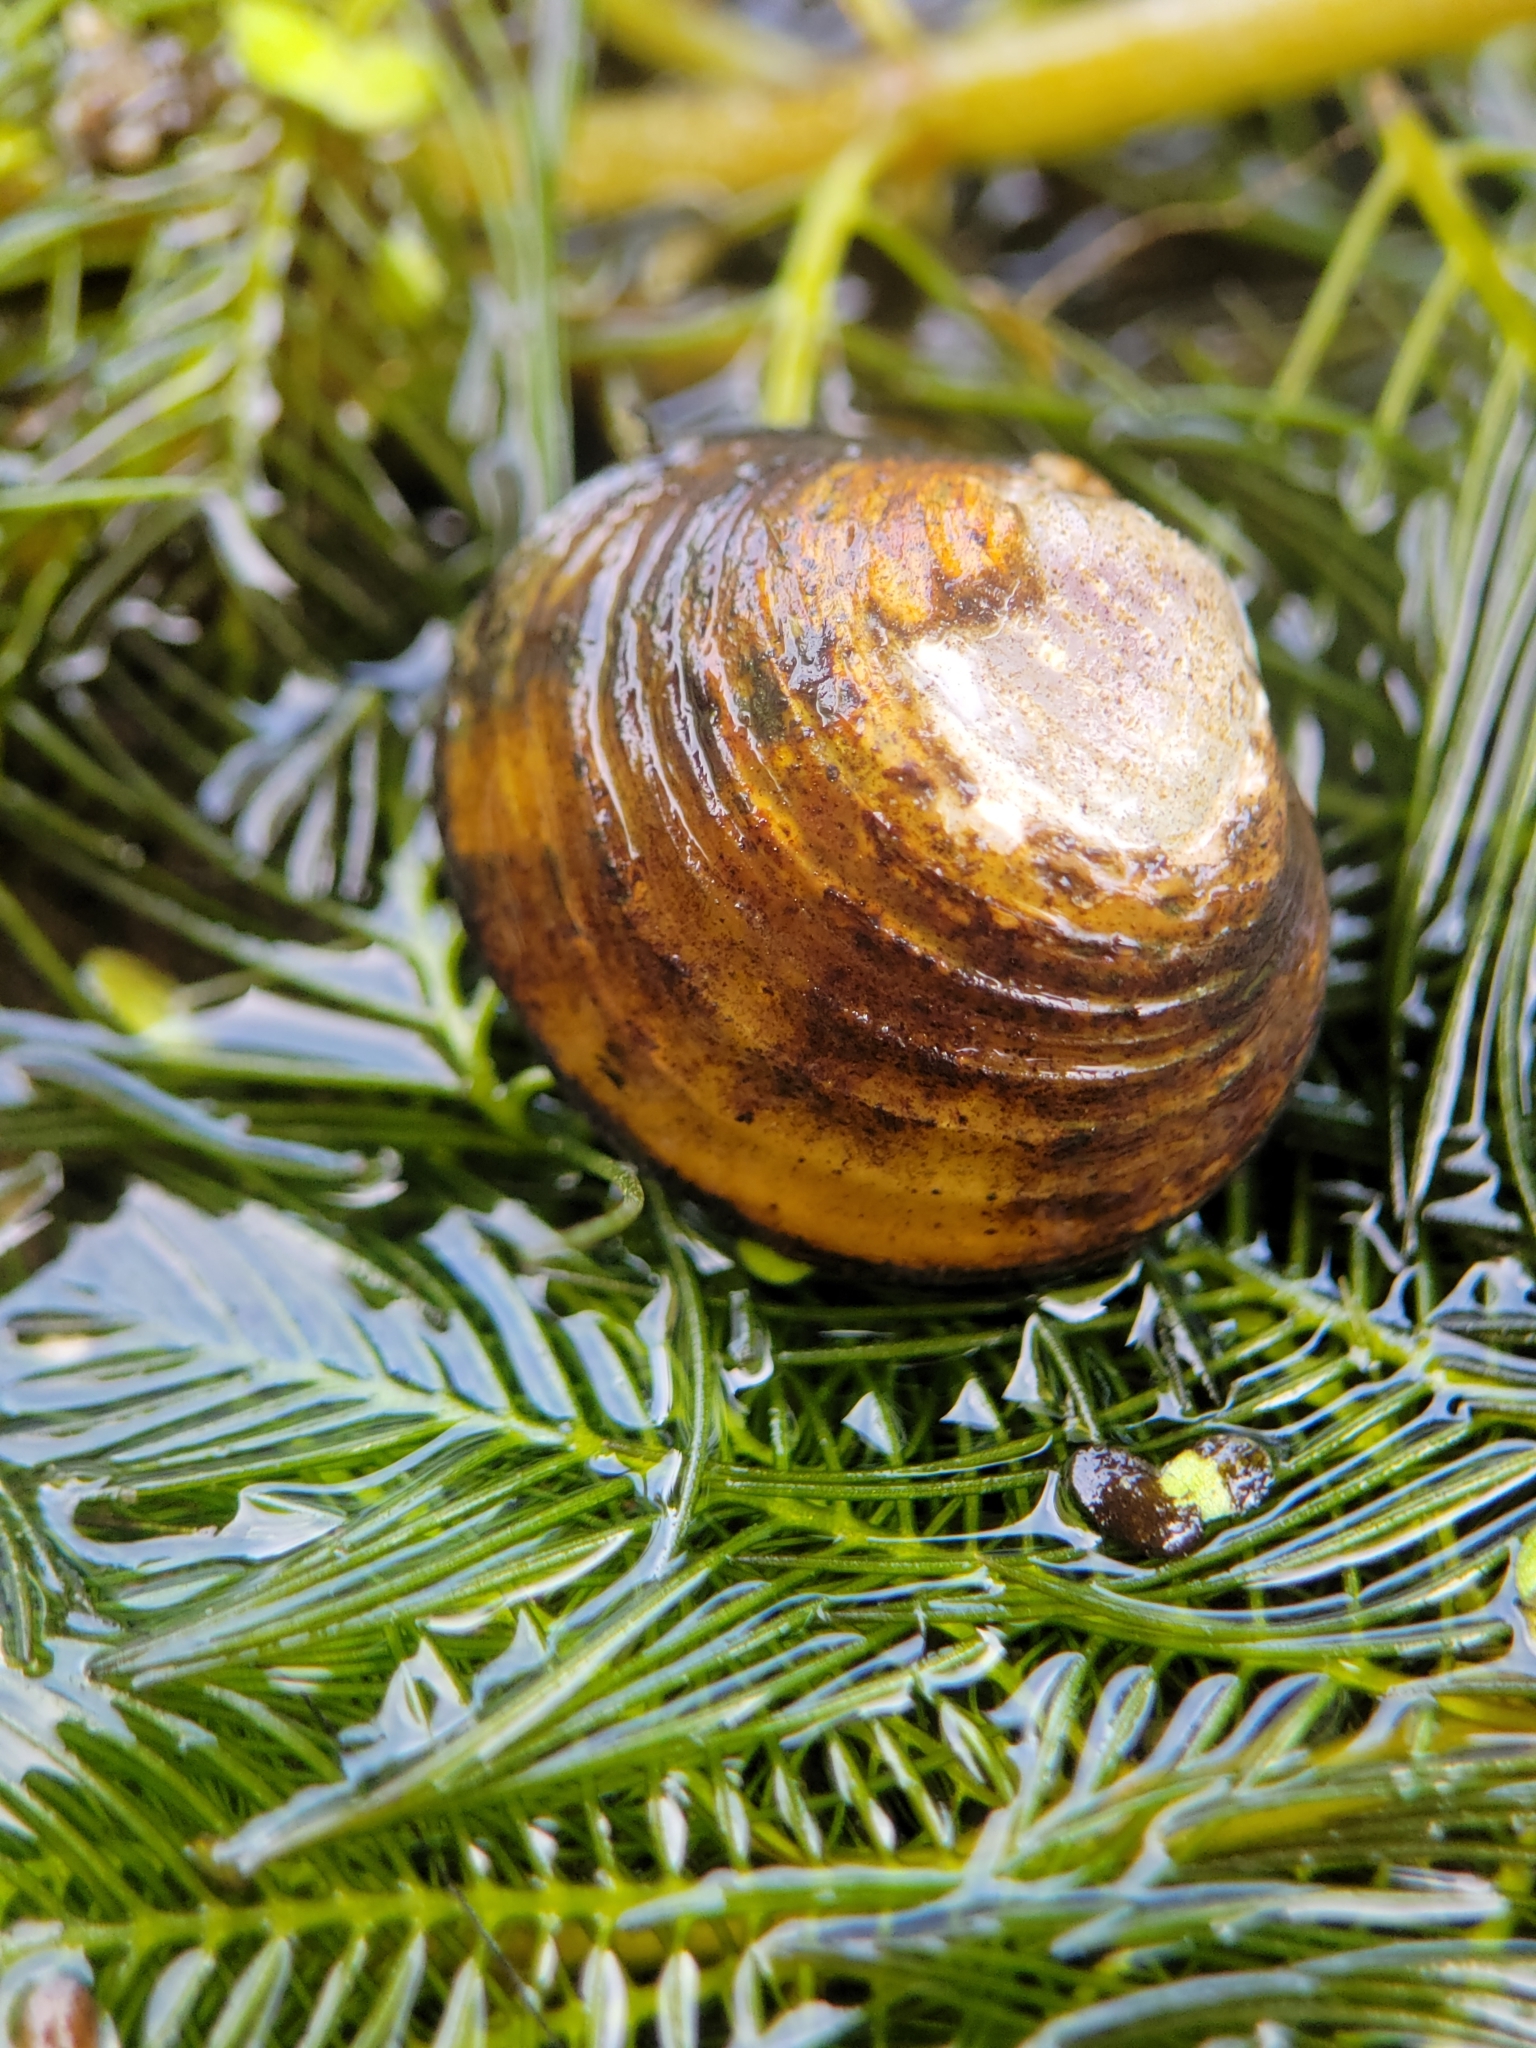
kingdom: Animalia
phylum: Mollusca
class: Bivalvia
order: Venerida
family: Cyrenidae
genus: Corbicula
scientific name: Corbicula fluminea
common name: Asian clam
